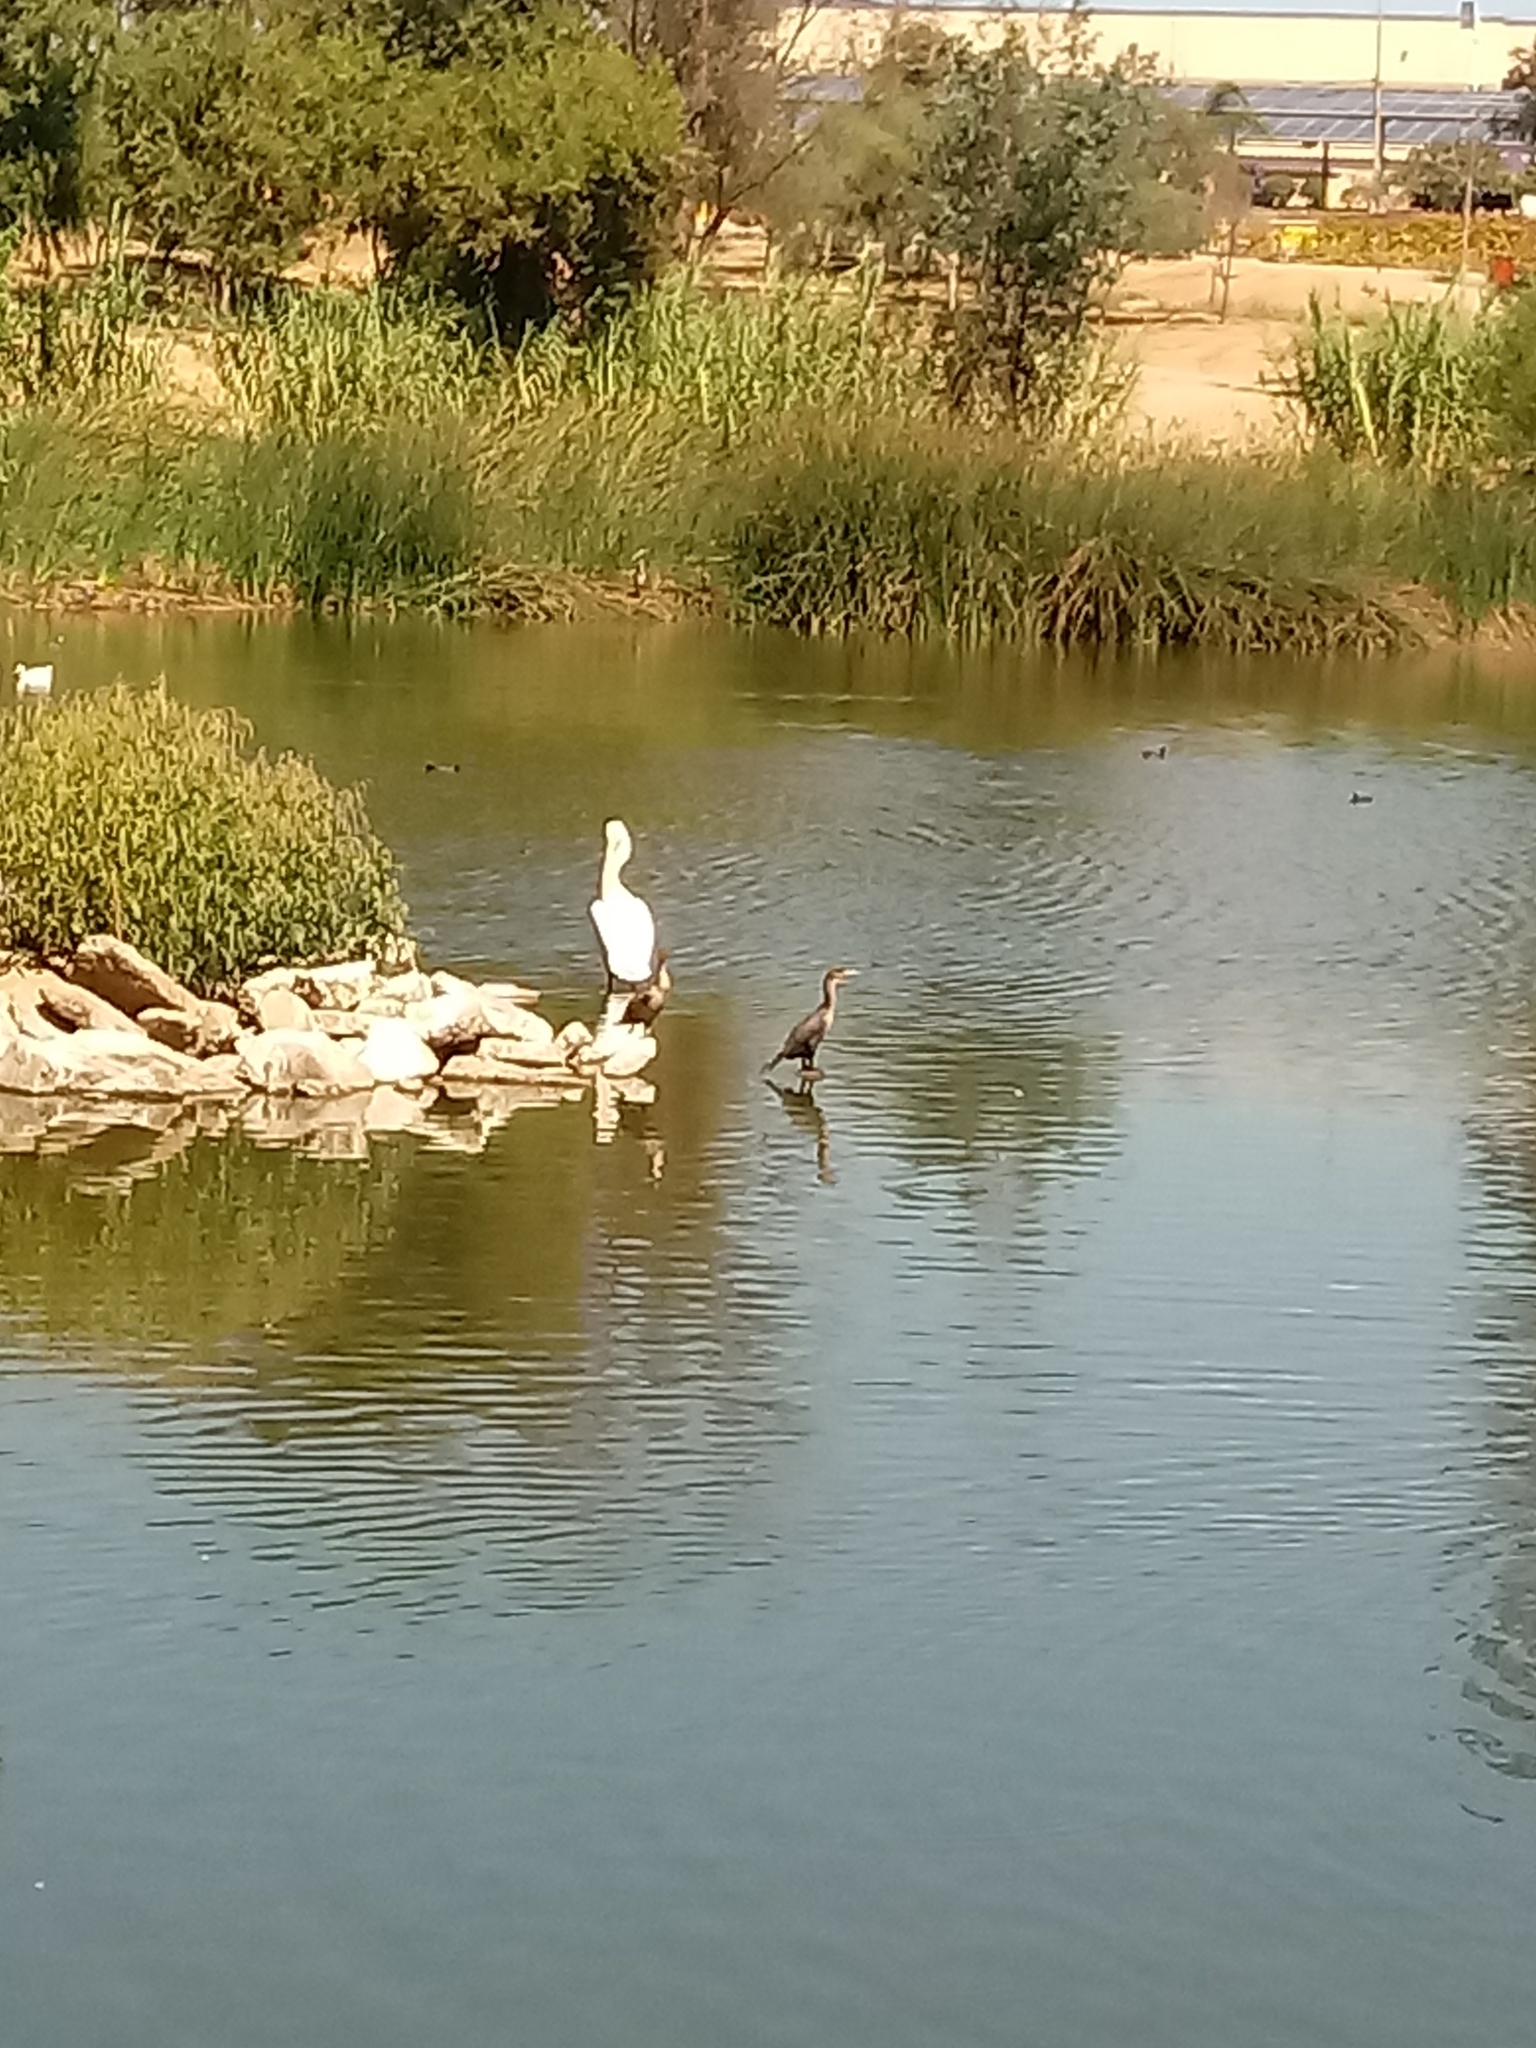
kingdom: Animalia
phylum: Chordata
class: Aves
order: Pelecaniformes
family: Pelecanidae
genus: Pelecanus
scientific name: Pelecanus erythrorhynchos
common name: American white pelican
